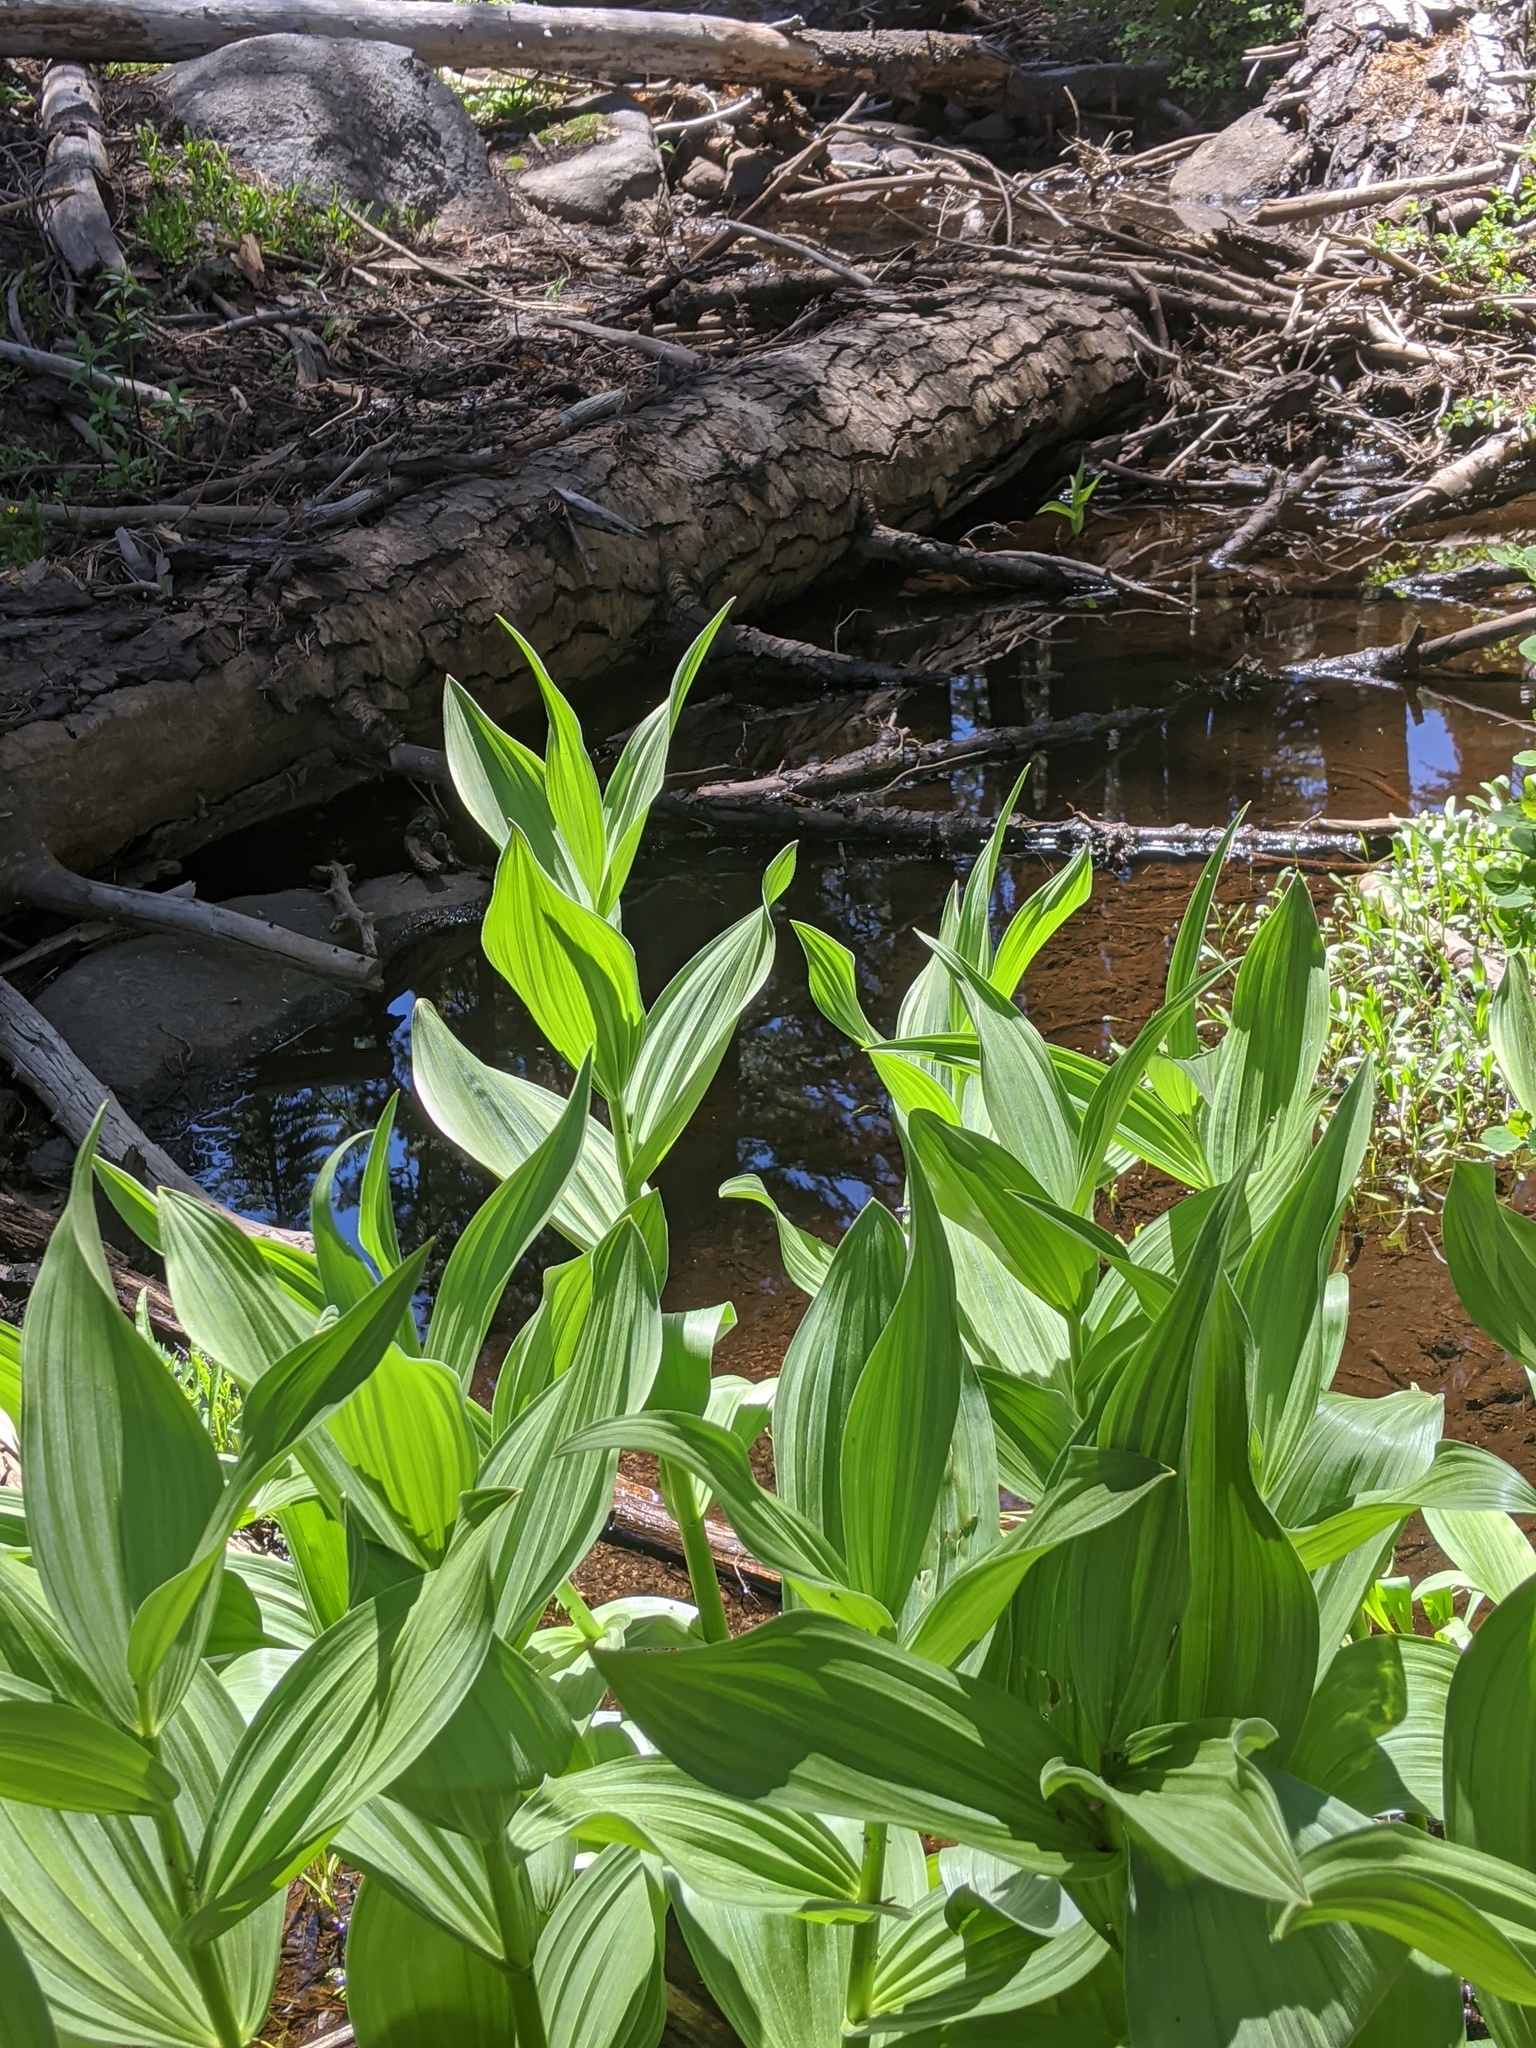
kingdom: Plantae
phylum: Tracheophyta
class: Liliopsida
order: Liliales
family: Melanthiaceae
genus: Veratrum
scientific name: Veratrum californicum
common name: California veratrum
